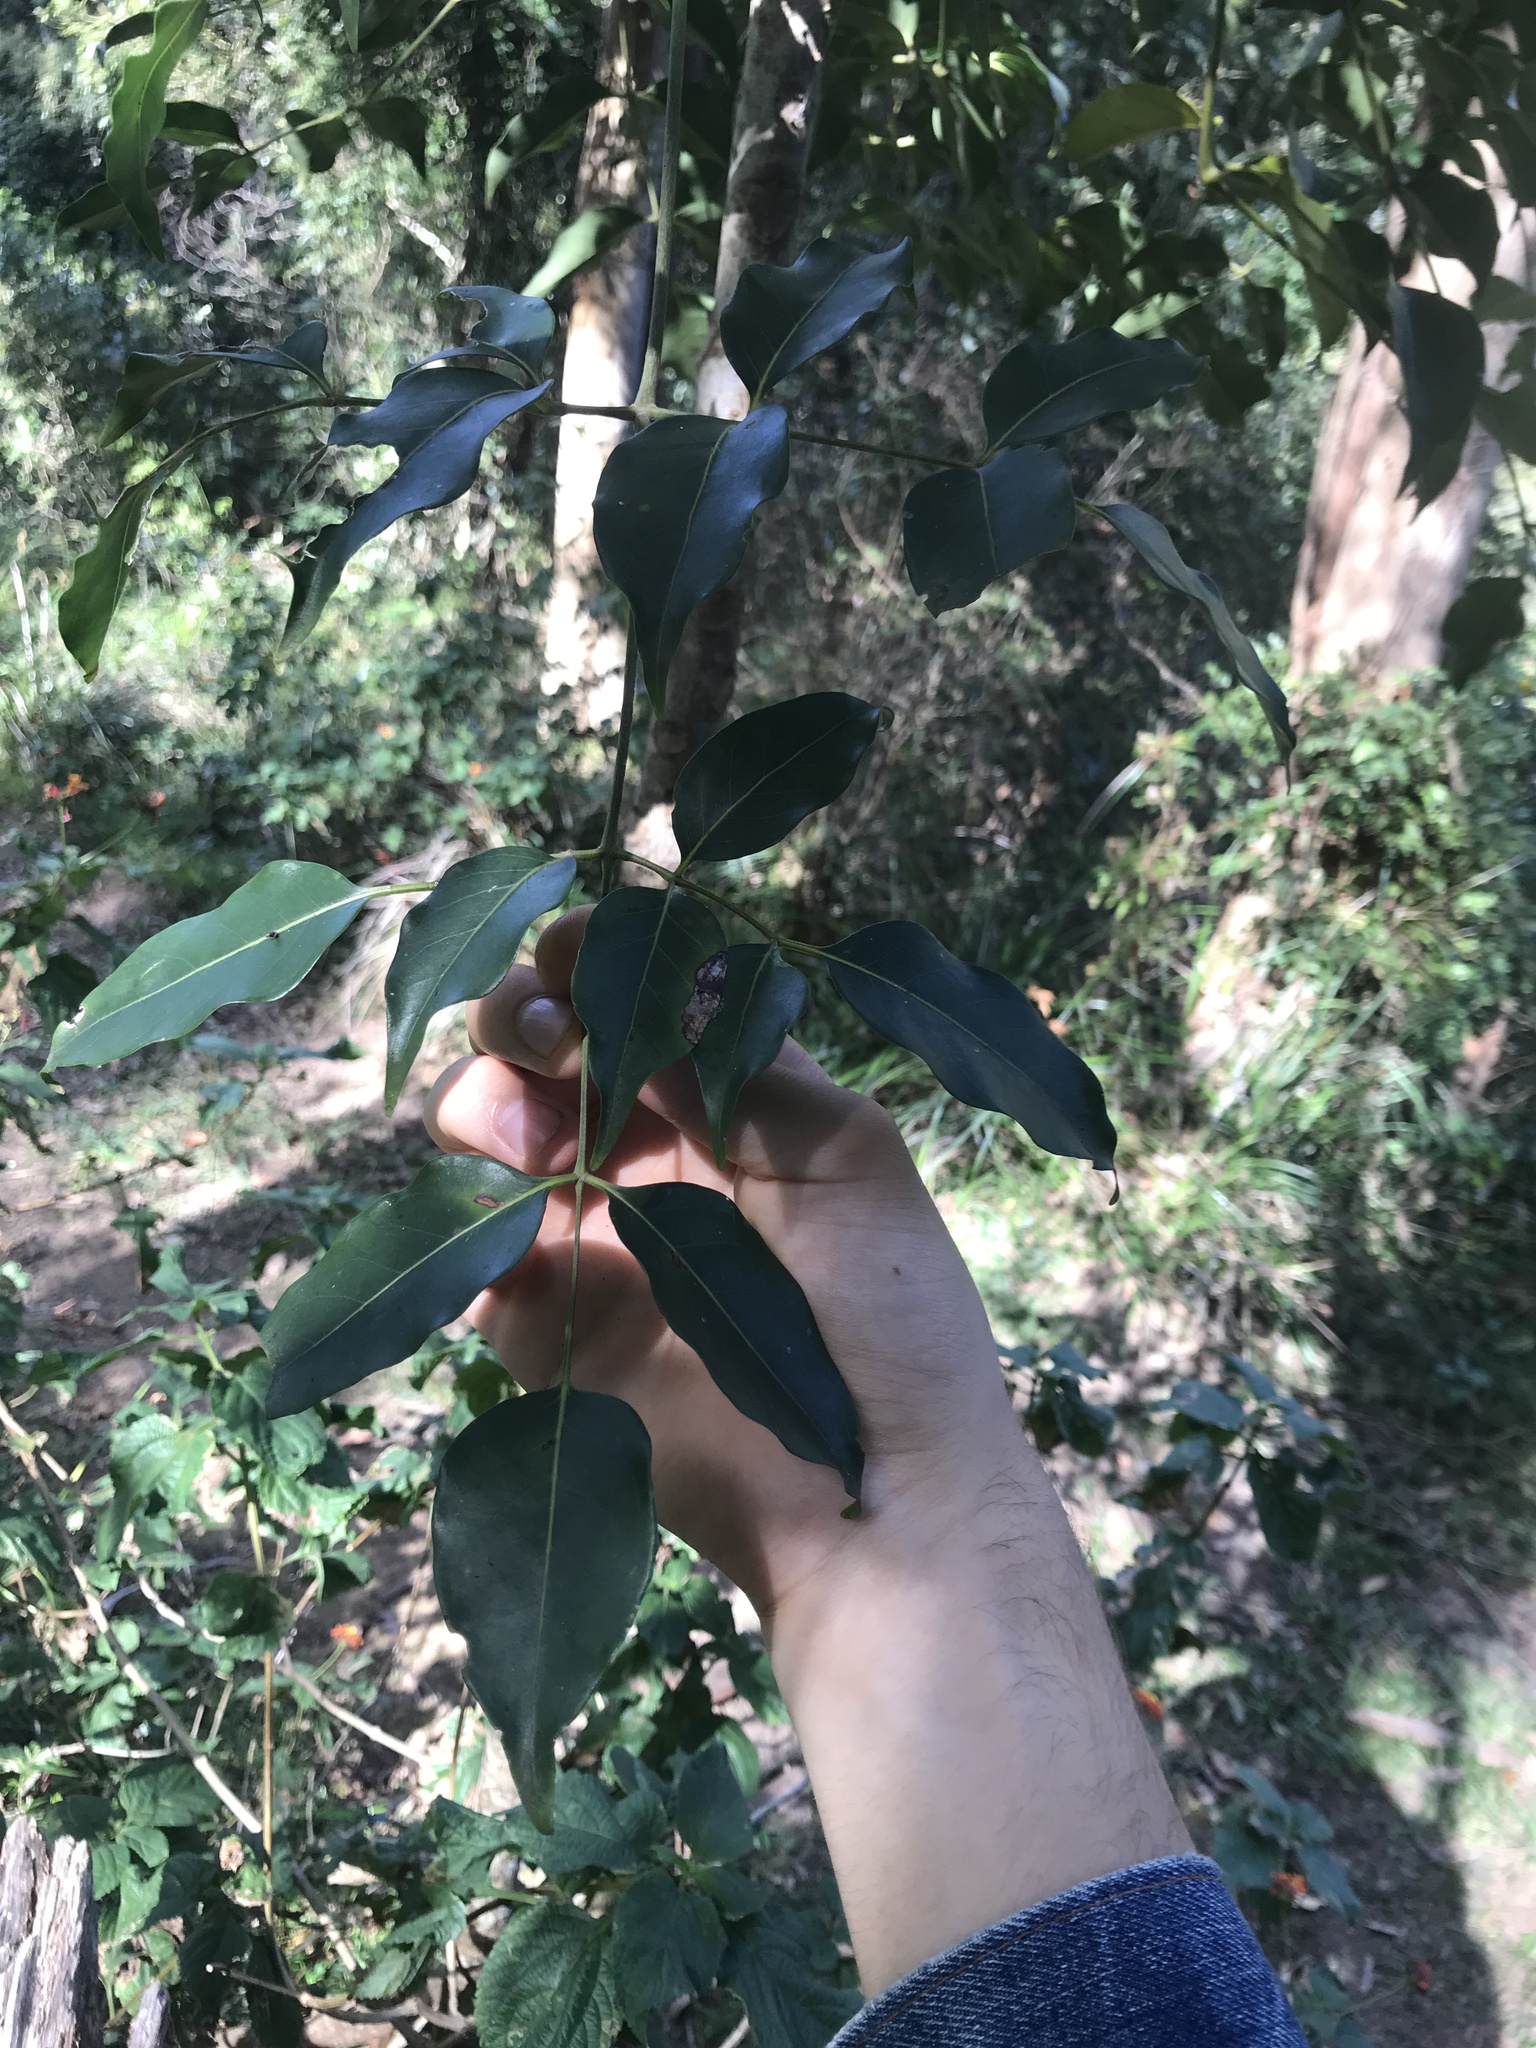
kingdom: Plantae
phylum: Tracheophyta
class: Magnoliopsida
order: Apiales
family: Araliaceae
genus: Polyscias
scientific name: Polyscias elegans
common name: Mowbulan whitewood
